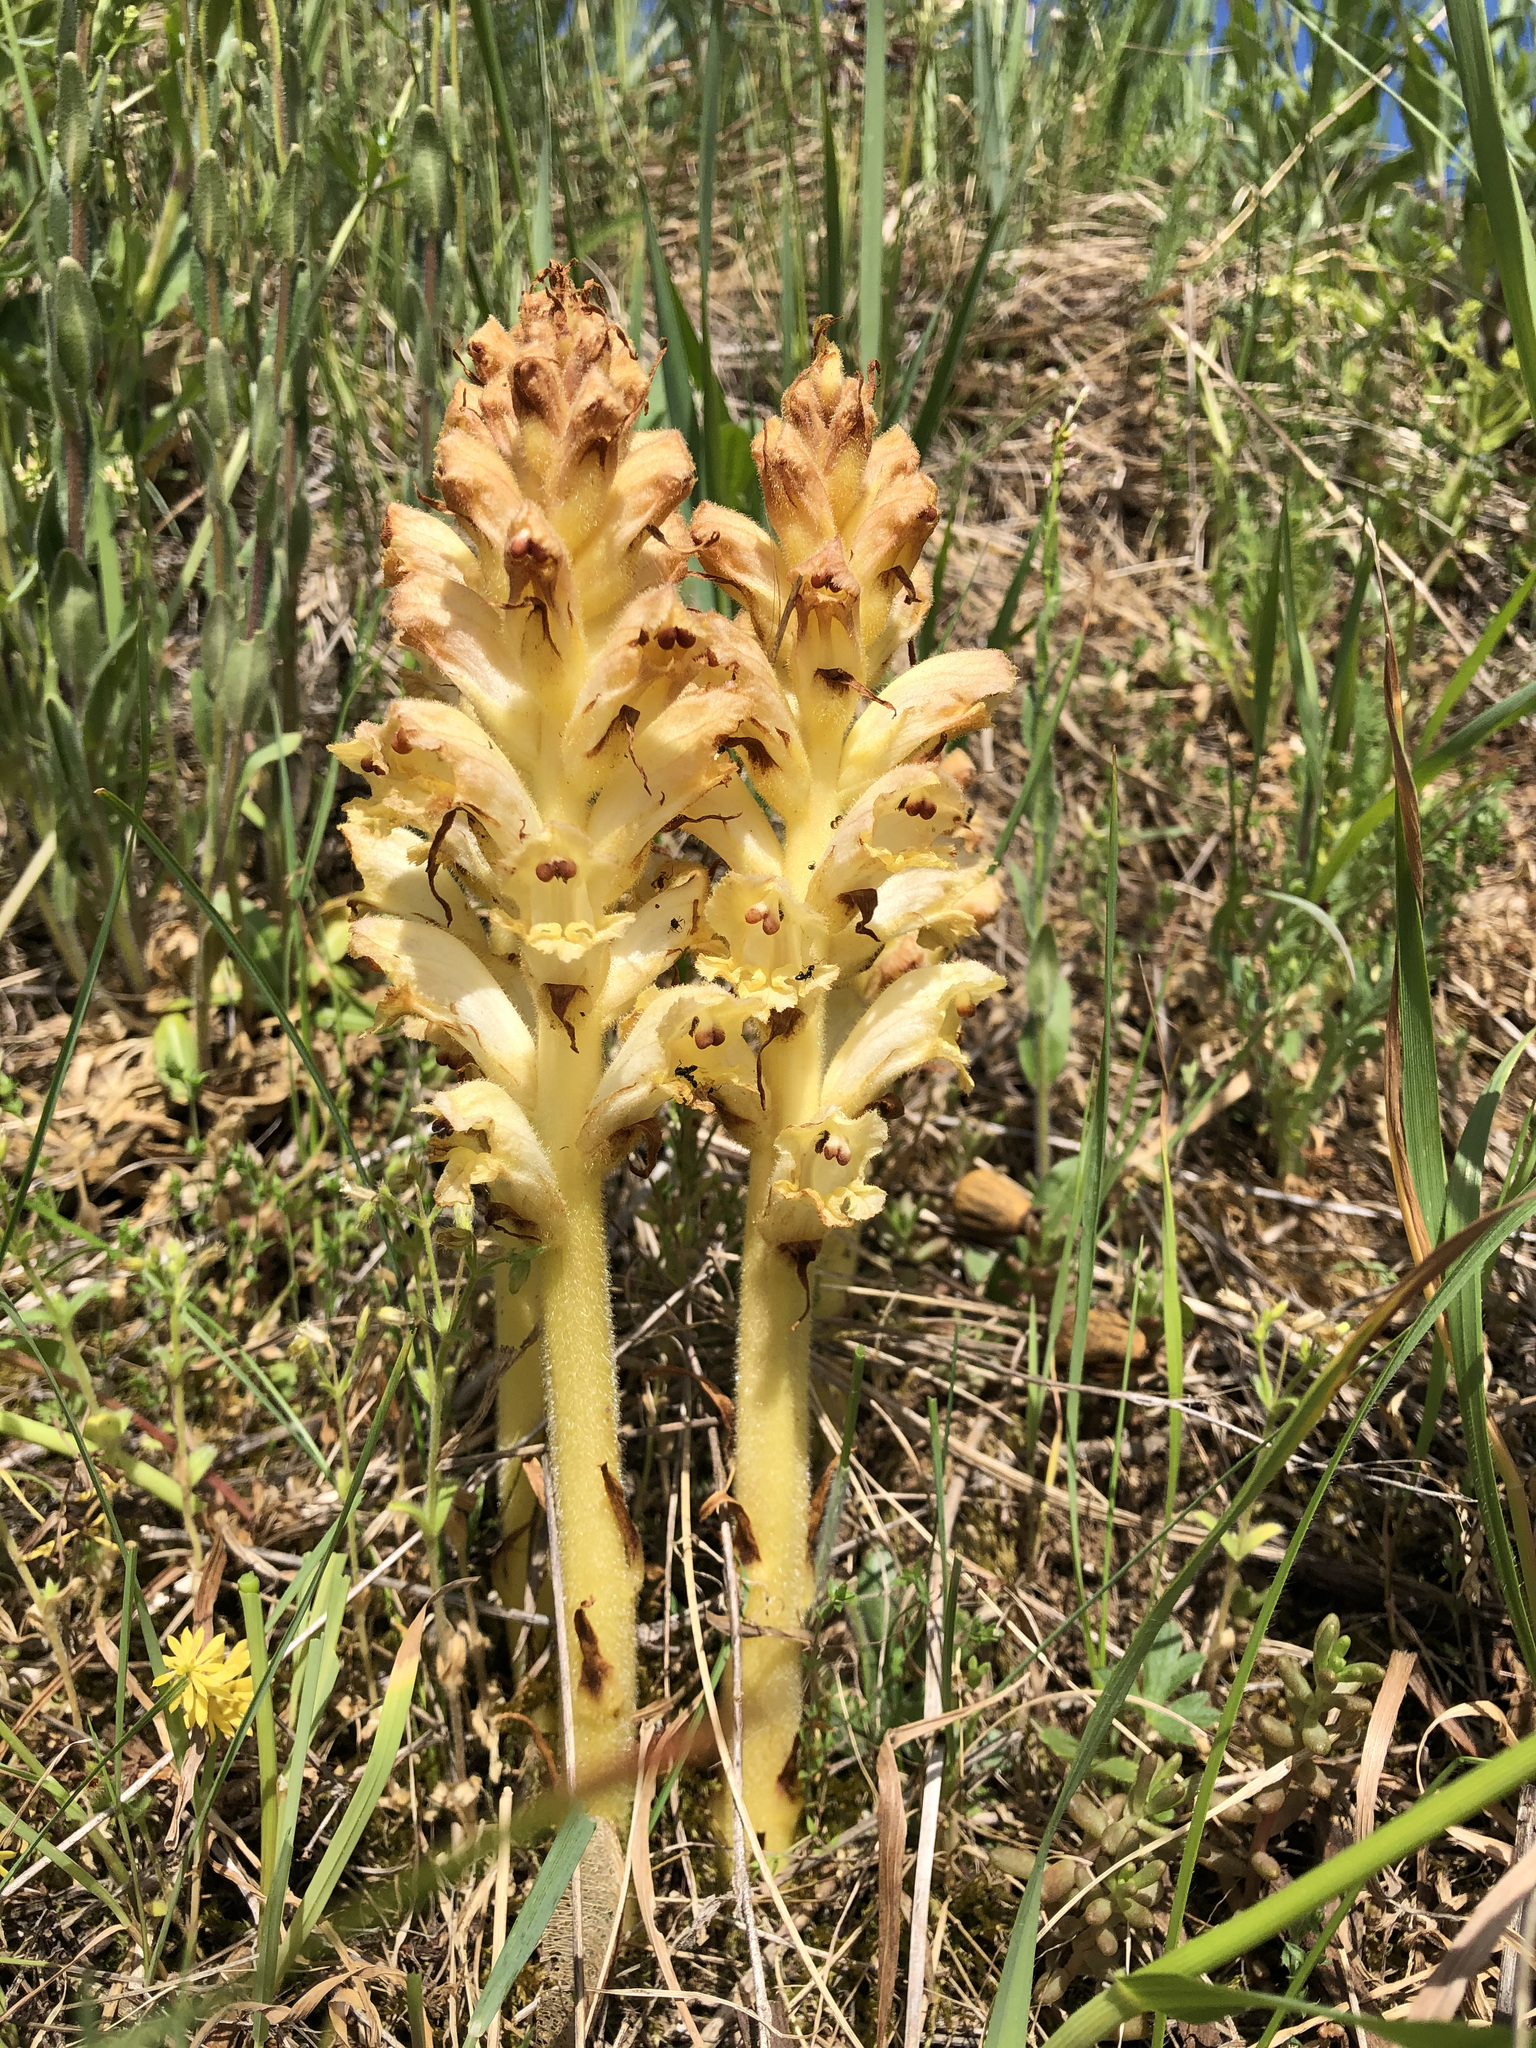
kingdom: Plantae
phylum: Tracheophyta
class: Magnoliopsida
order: Lamiales
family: Orobanchaceae
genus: Orobanche
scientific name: Orobanche caryophyllacea
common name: Bedstraw broomrape
